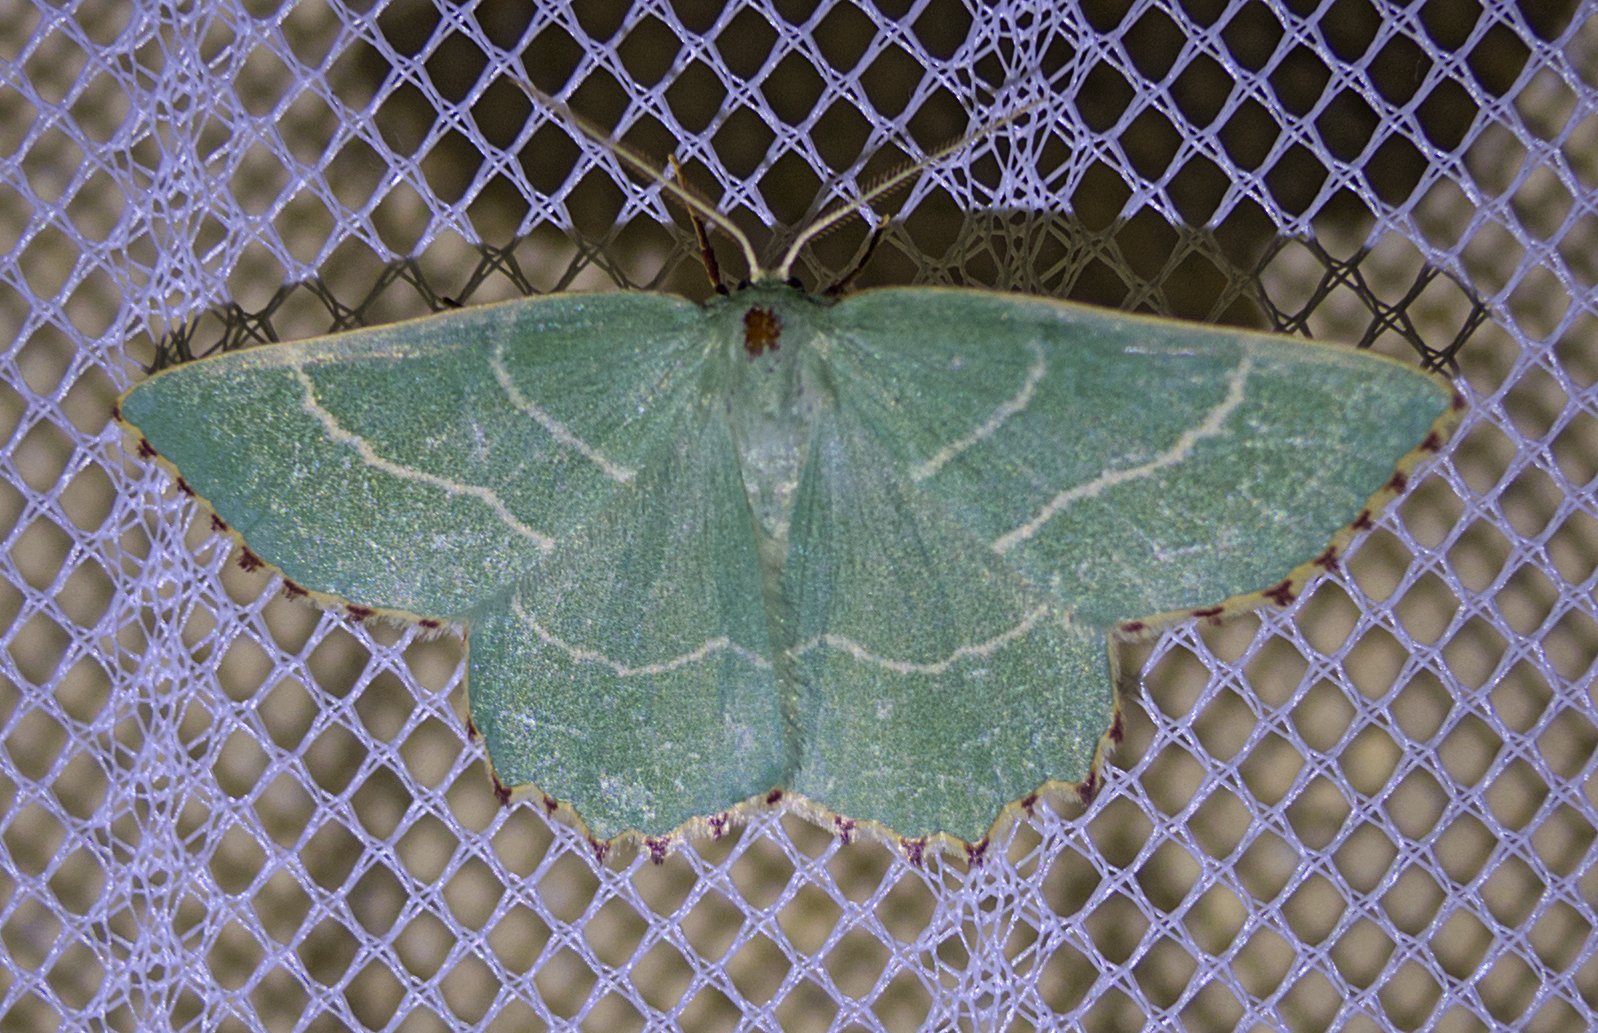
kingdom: Animalia
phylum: Arthropoda
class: Insecta
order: Lepidoptera
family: Geometridae
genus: Thalera
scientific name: Thalera fimbrialis
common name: Sussex emerald
